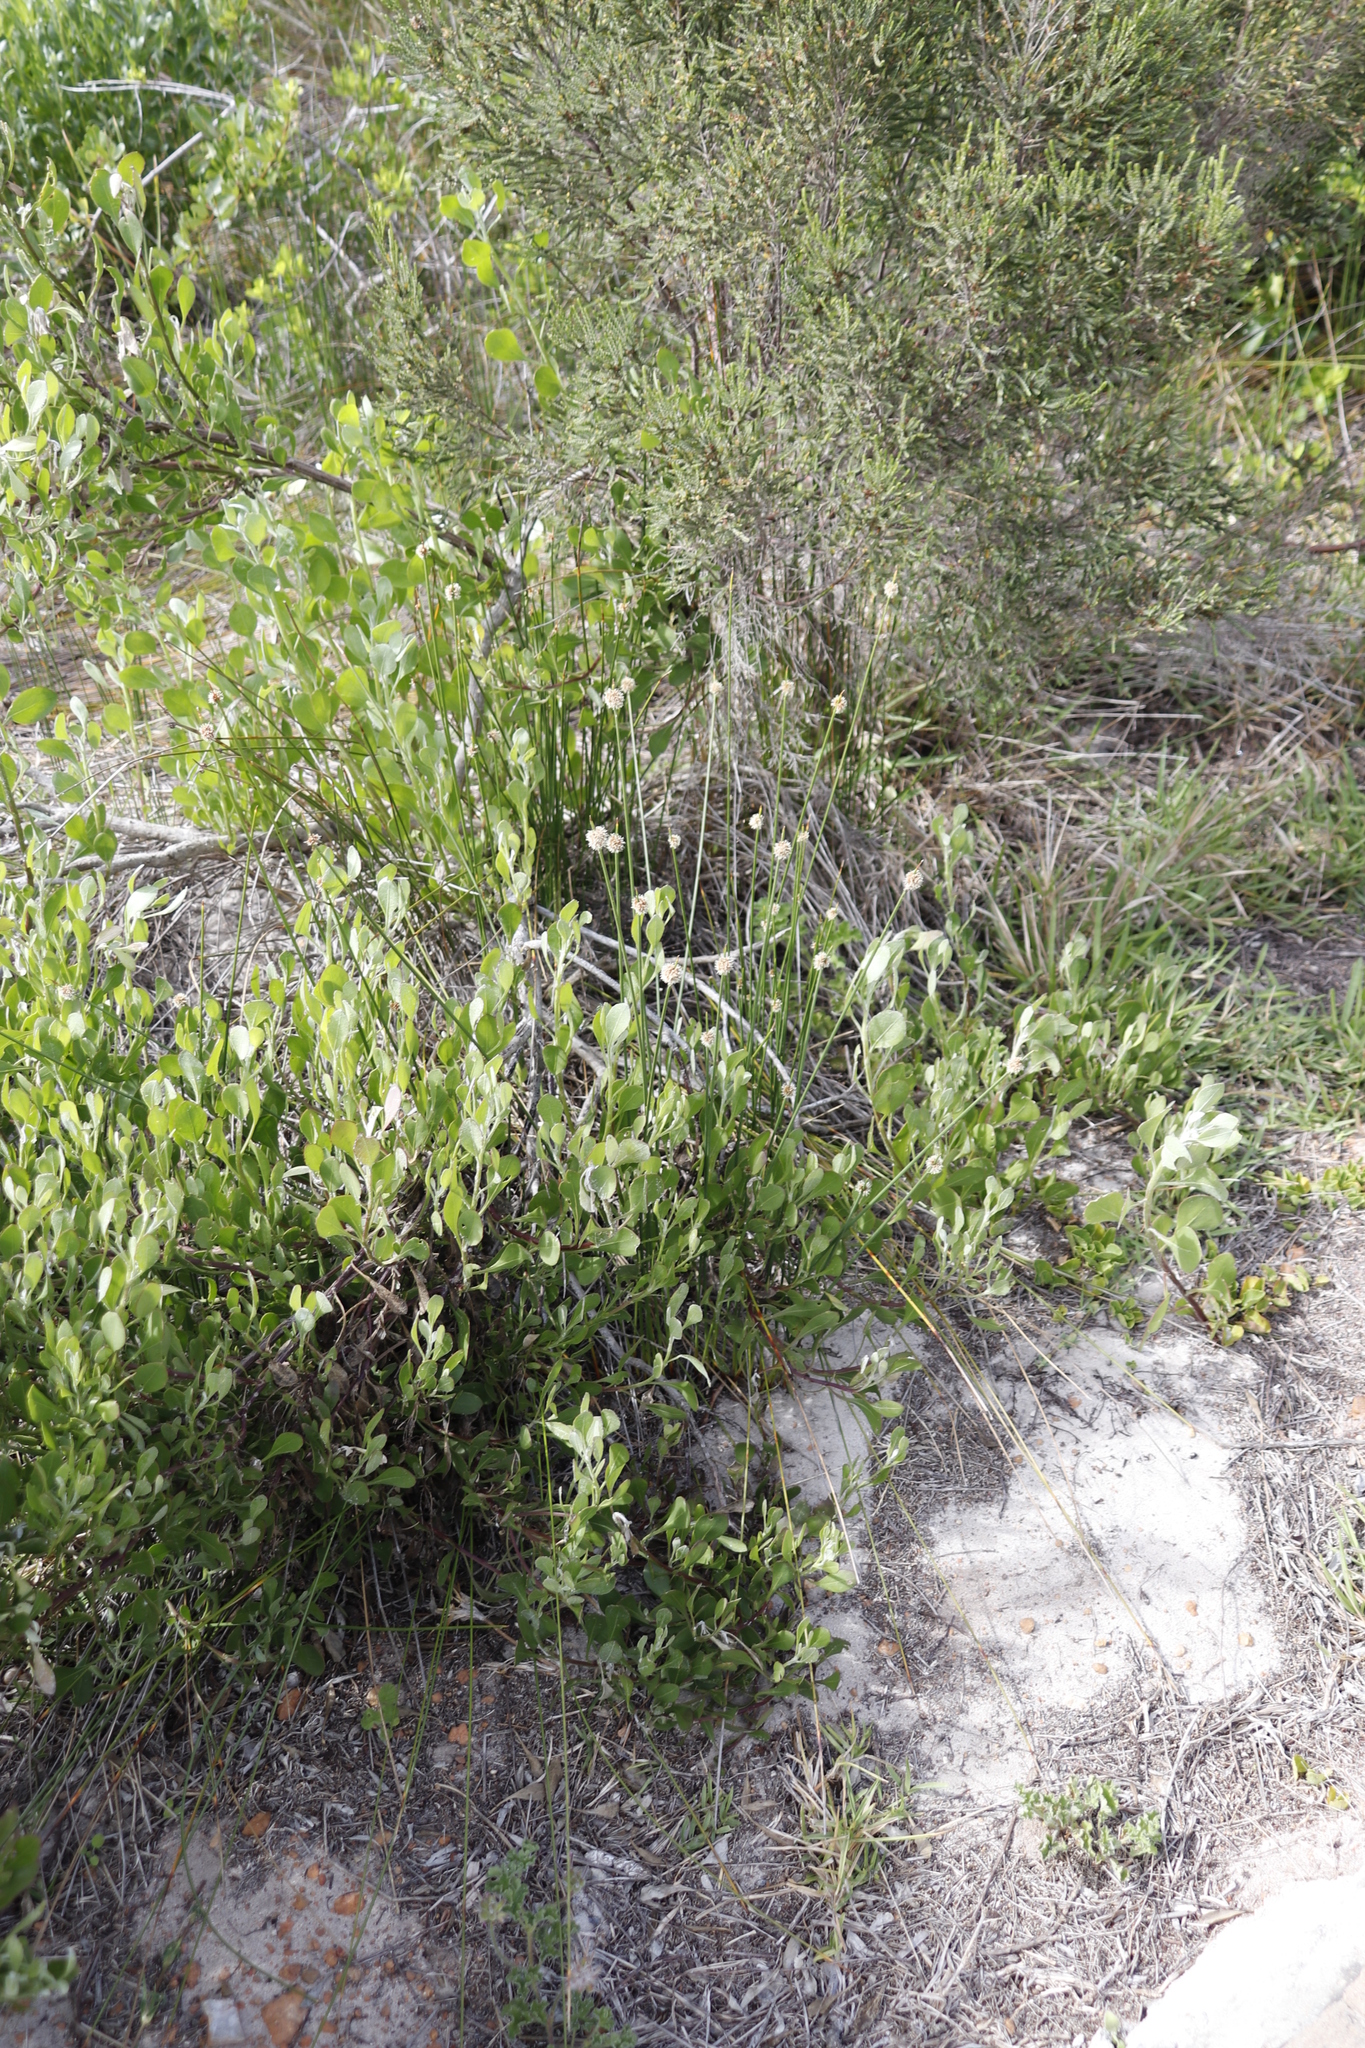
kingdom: Plantae
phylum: Tracheophyta
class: Liliopsida
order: Poales
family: Cyperaceae
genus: Ficinia
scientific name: Ficinia nodosa
